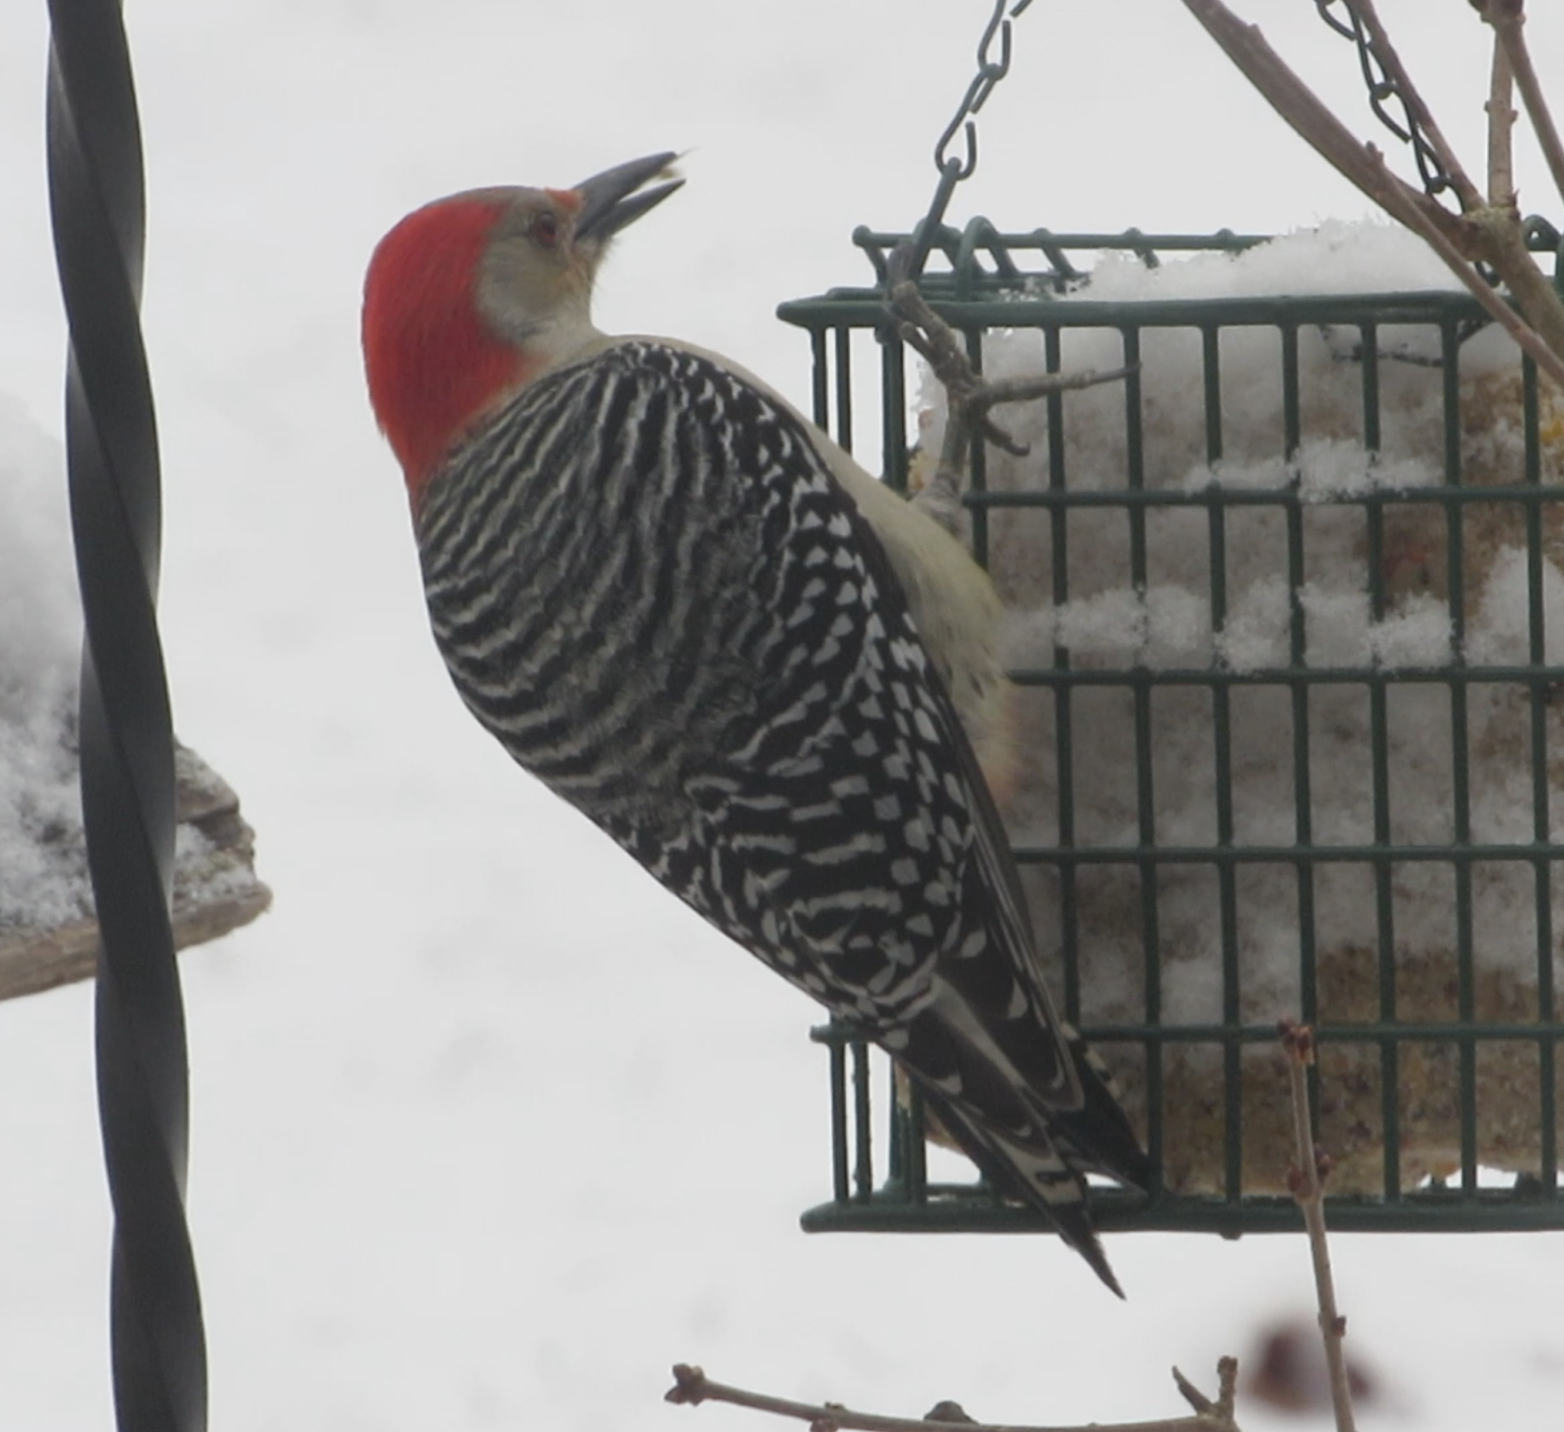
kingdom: Animalia
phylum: Chordata
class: Aves
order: Piciformes
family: Picidae
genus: Melanerpes
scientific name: Melanerpes carolinus
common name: Red-bellied woodpecker
